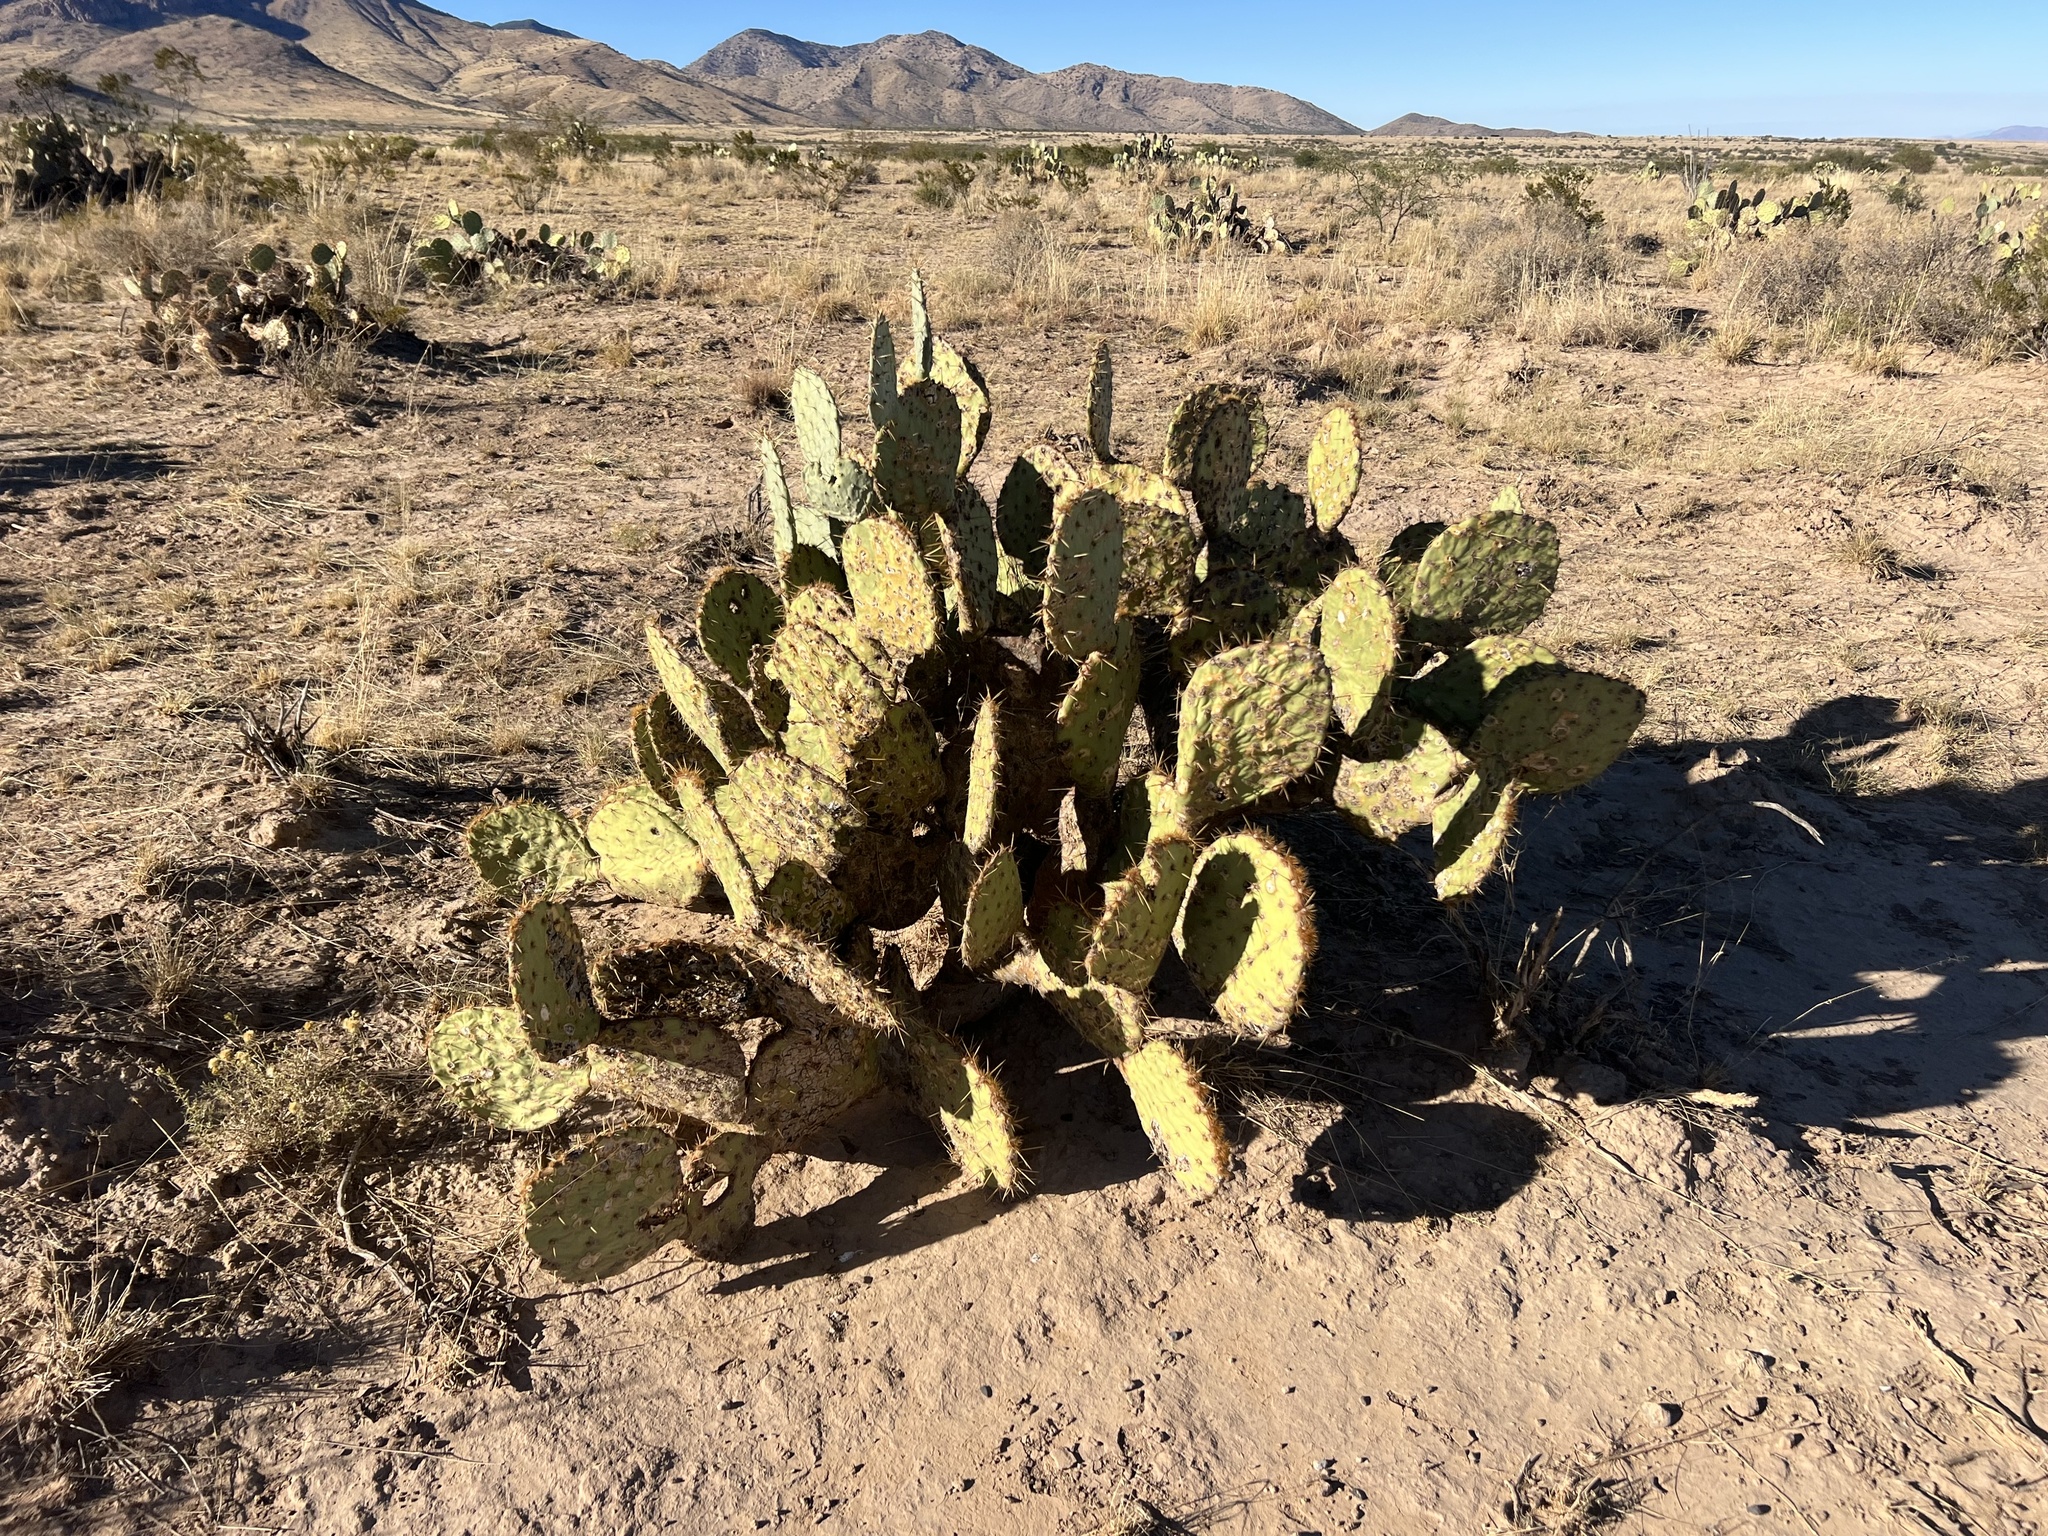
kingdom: Plantae
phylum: Tracheophyta
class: Magnoliopsida
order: Caryophyllales
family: Cactaceae
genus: Opuntia
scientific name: Opuntia engelmannii
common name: Cactus-apple
